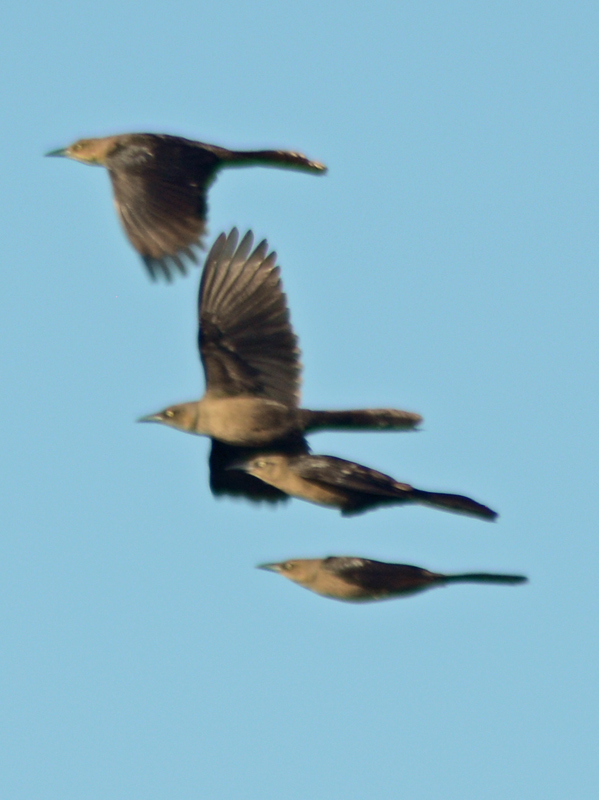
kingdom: Animalia
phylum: Chordata
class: Aves
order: Passeriformes
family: Icteridae
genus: Quiscalus
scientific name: Quiscalus mexicanus
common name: Great-tailed grackle
